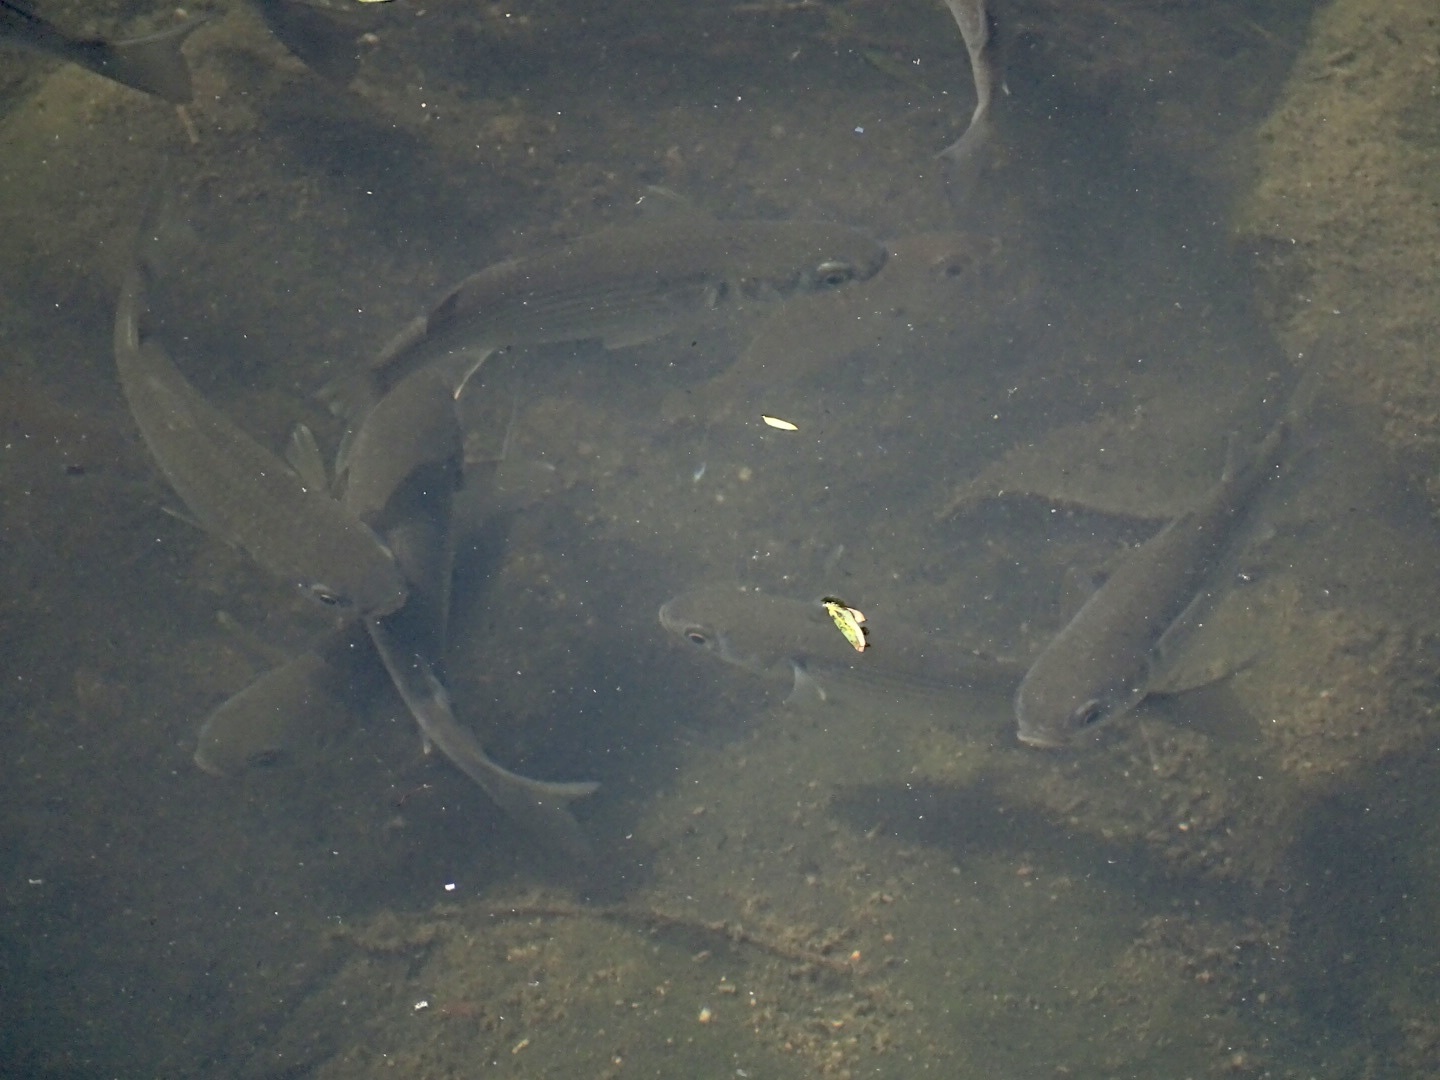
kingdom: Animalia
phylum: Chordata
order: Mugiliformes
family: Mugilidae
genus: Mugil
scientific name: Mugil cephalus
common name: Grey mullet
